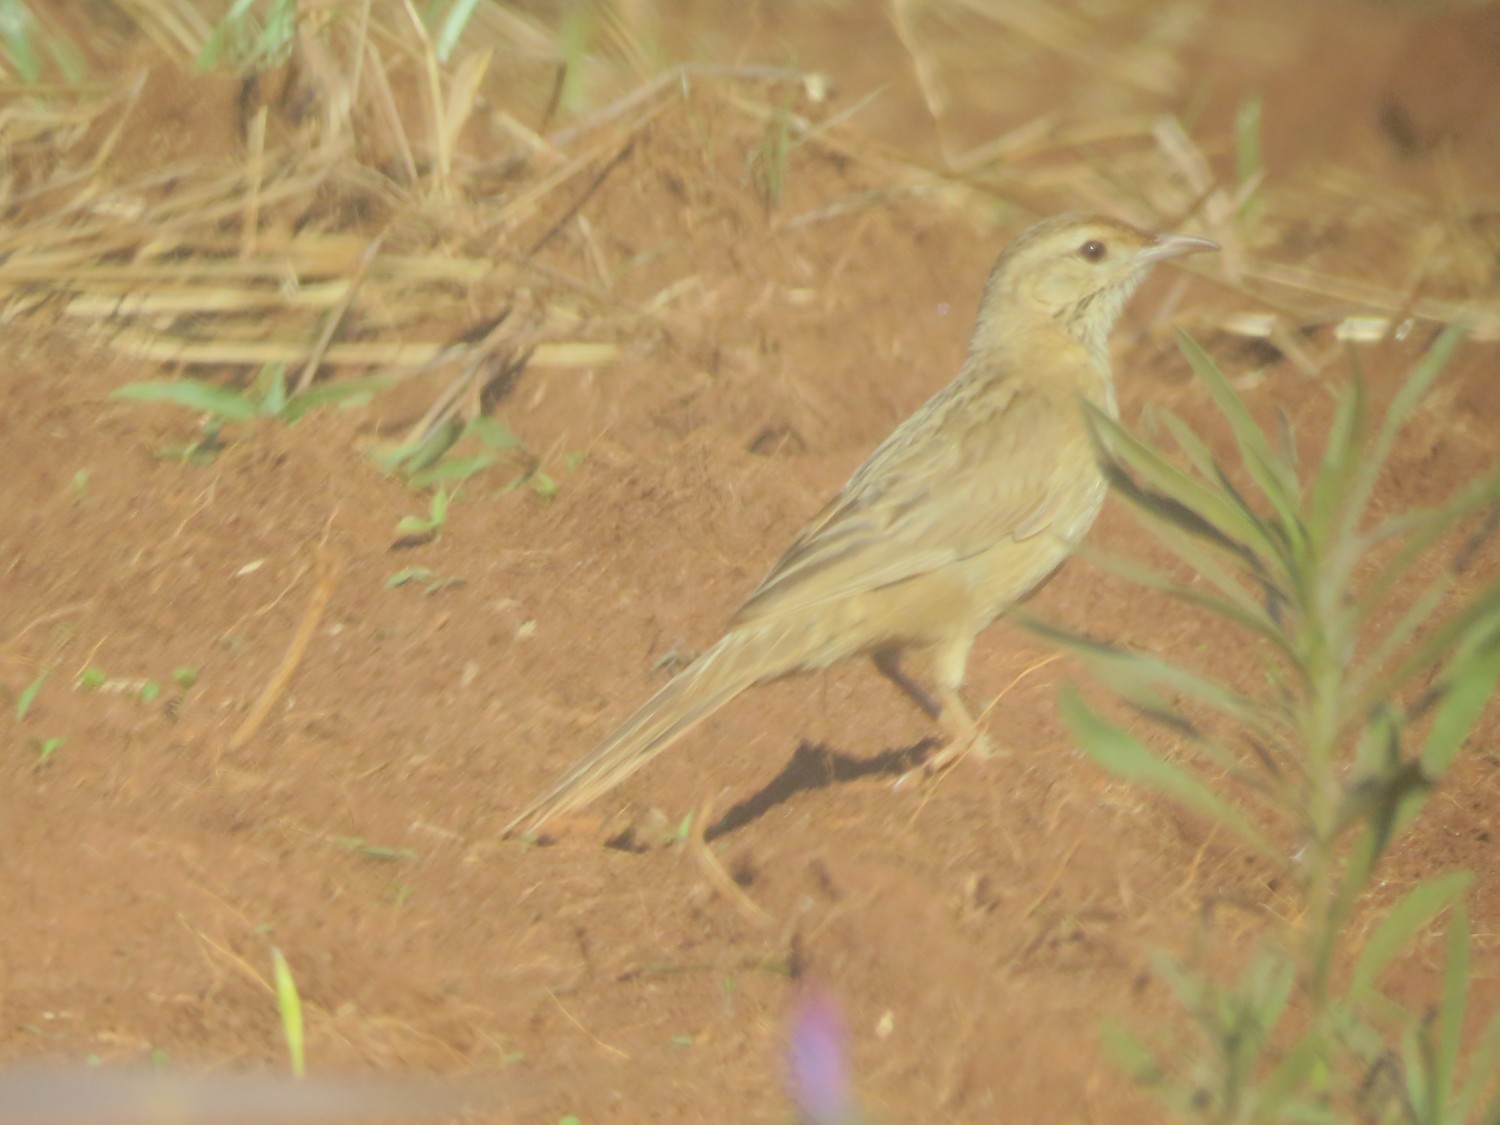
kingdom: Animalia
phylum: Chordata
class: Aves
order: Passeriformes
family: Furnariidae
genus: Anumbius
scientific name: Anumbius annumbi
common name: Firewood-gatherer
